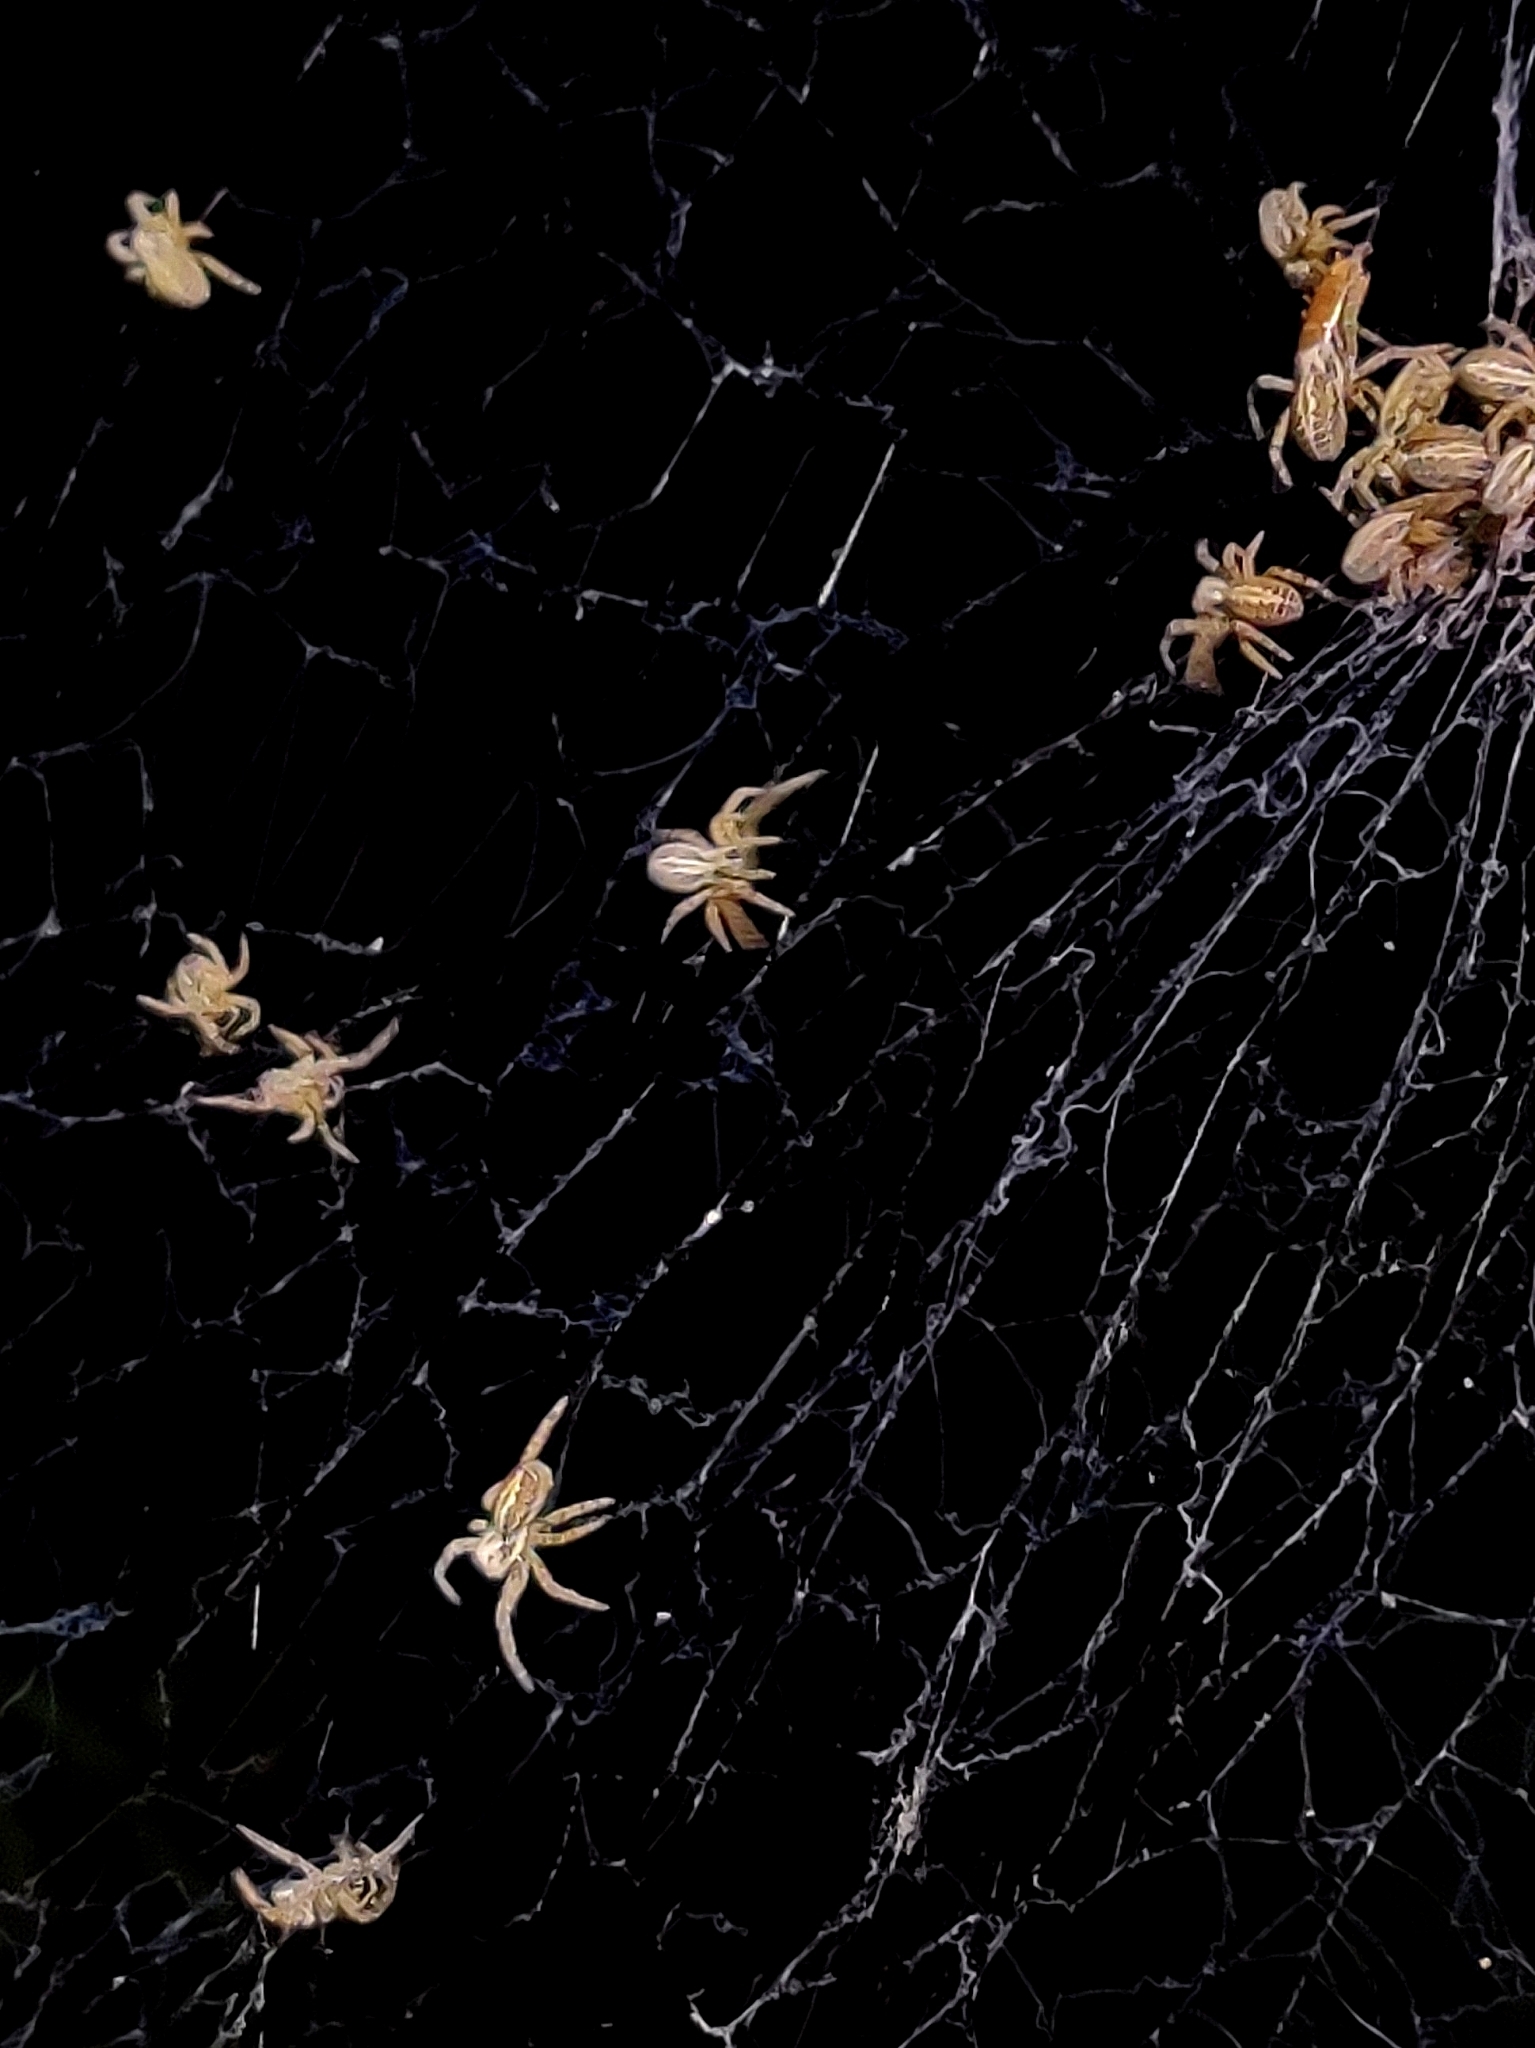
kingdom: Animalia
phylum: Arthropoda
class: Arachnida
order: Araneae
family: Eresidae
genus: Stegodyphus
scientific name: Stegodyphus sarasinorum
